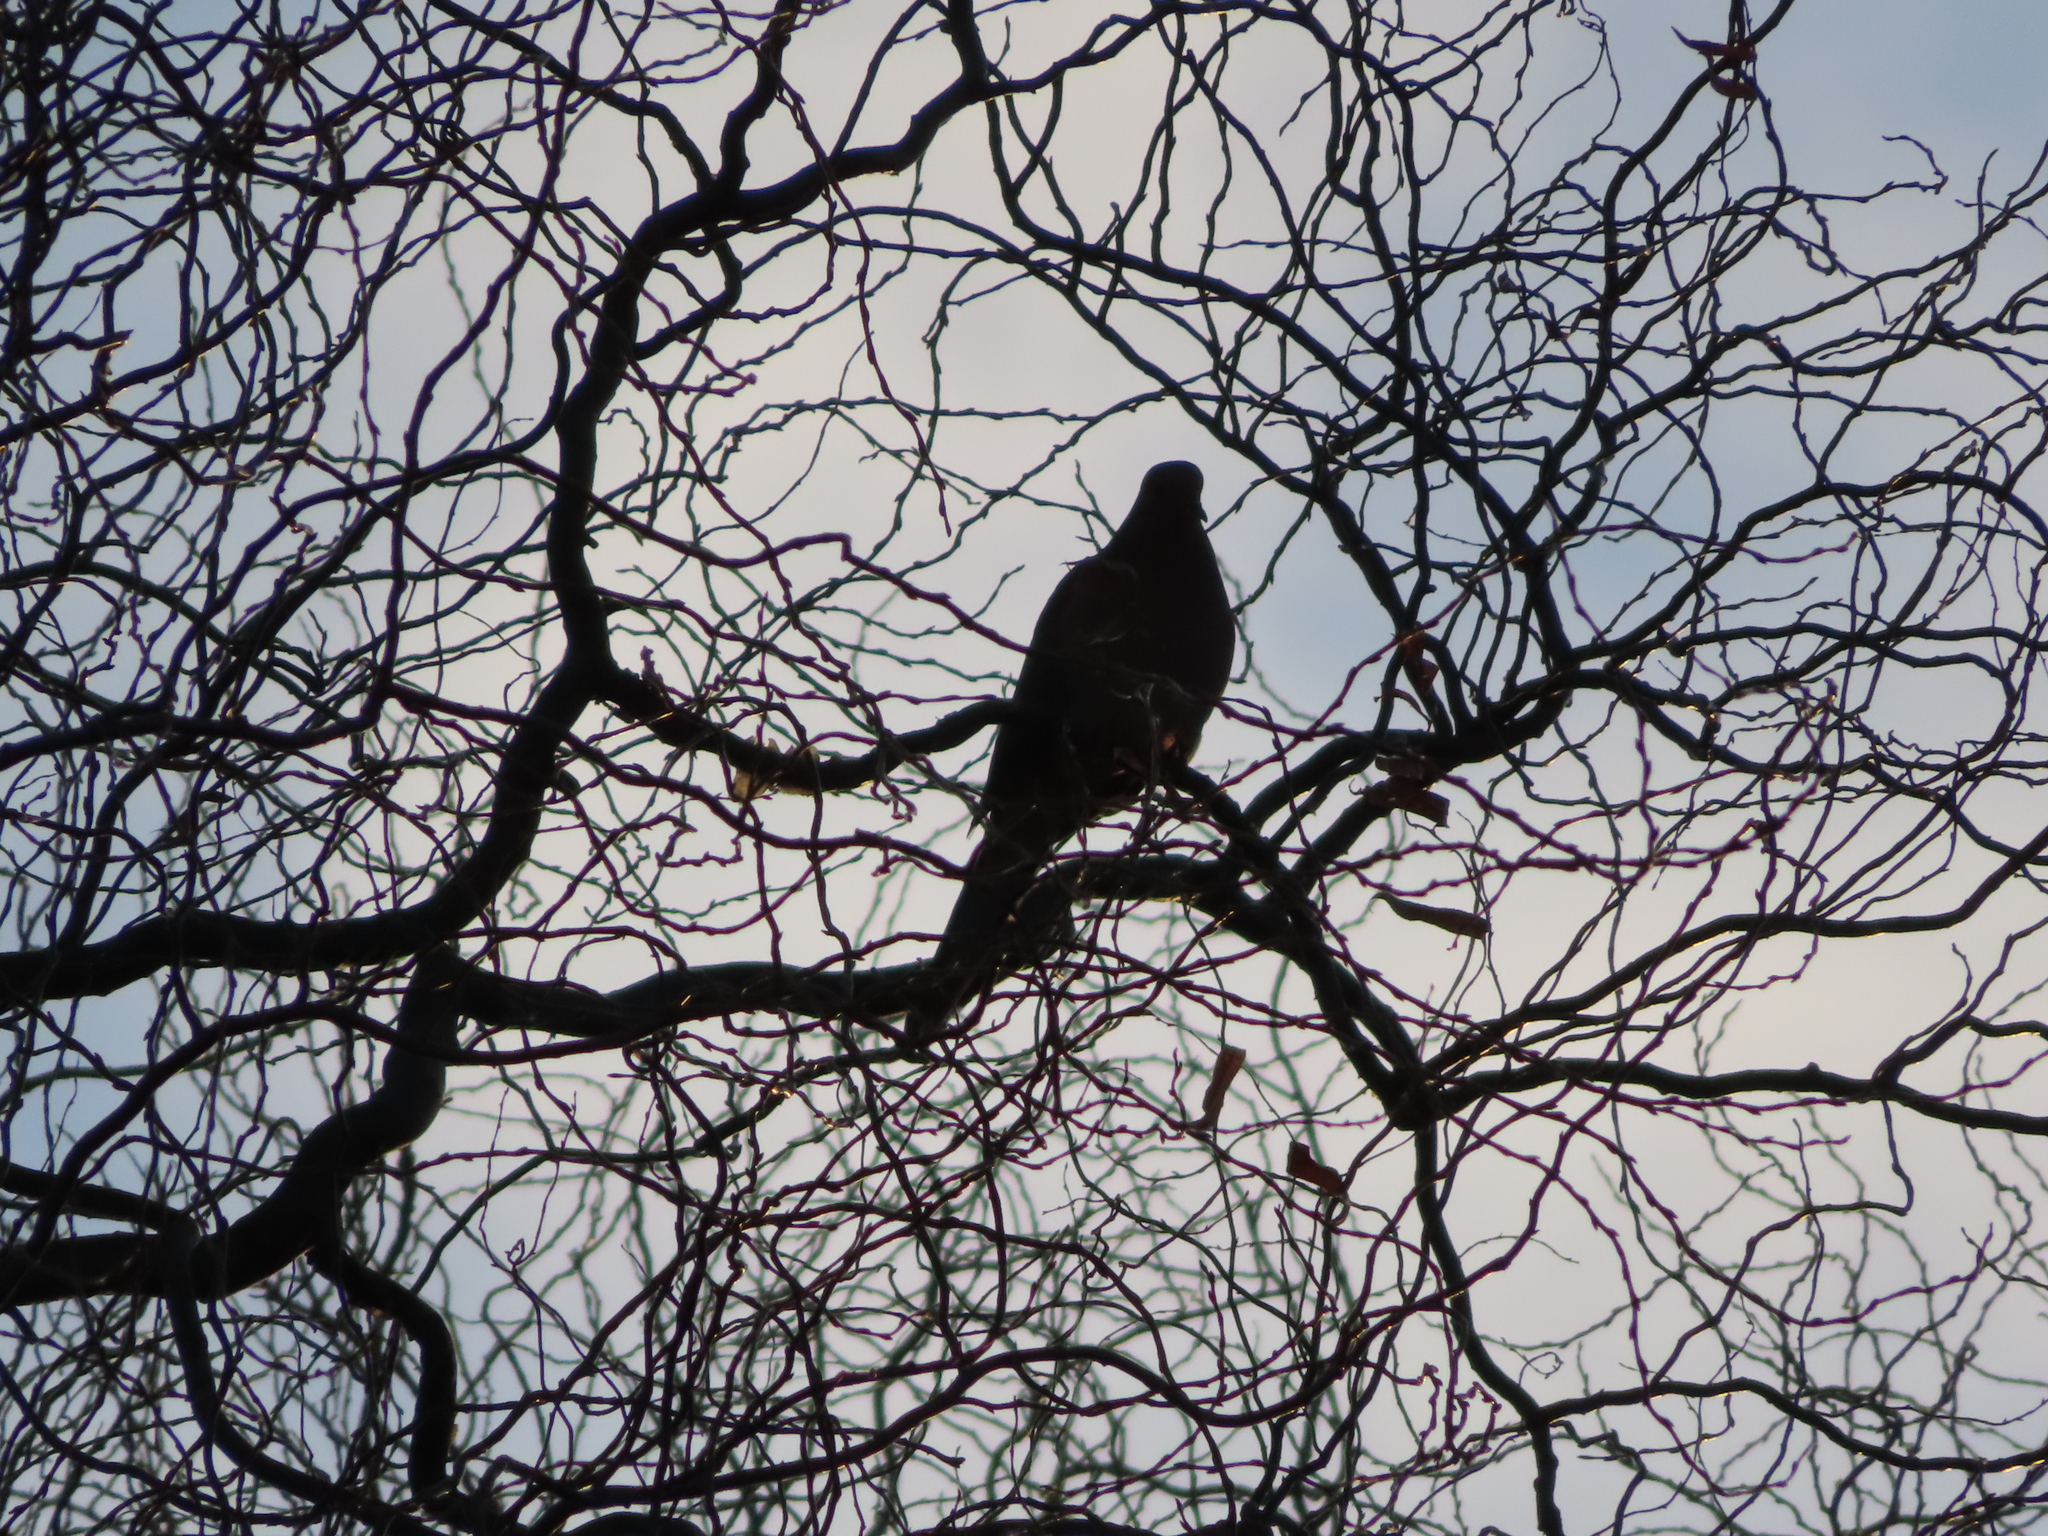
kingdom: Animalia
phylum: Chordata
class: Aves
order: Columbiformes
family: Columbidae
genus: Zenaida
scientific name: Zenaida macroura
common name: Mourning dove
